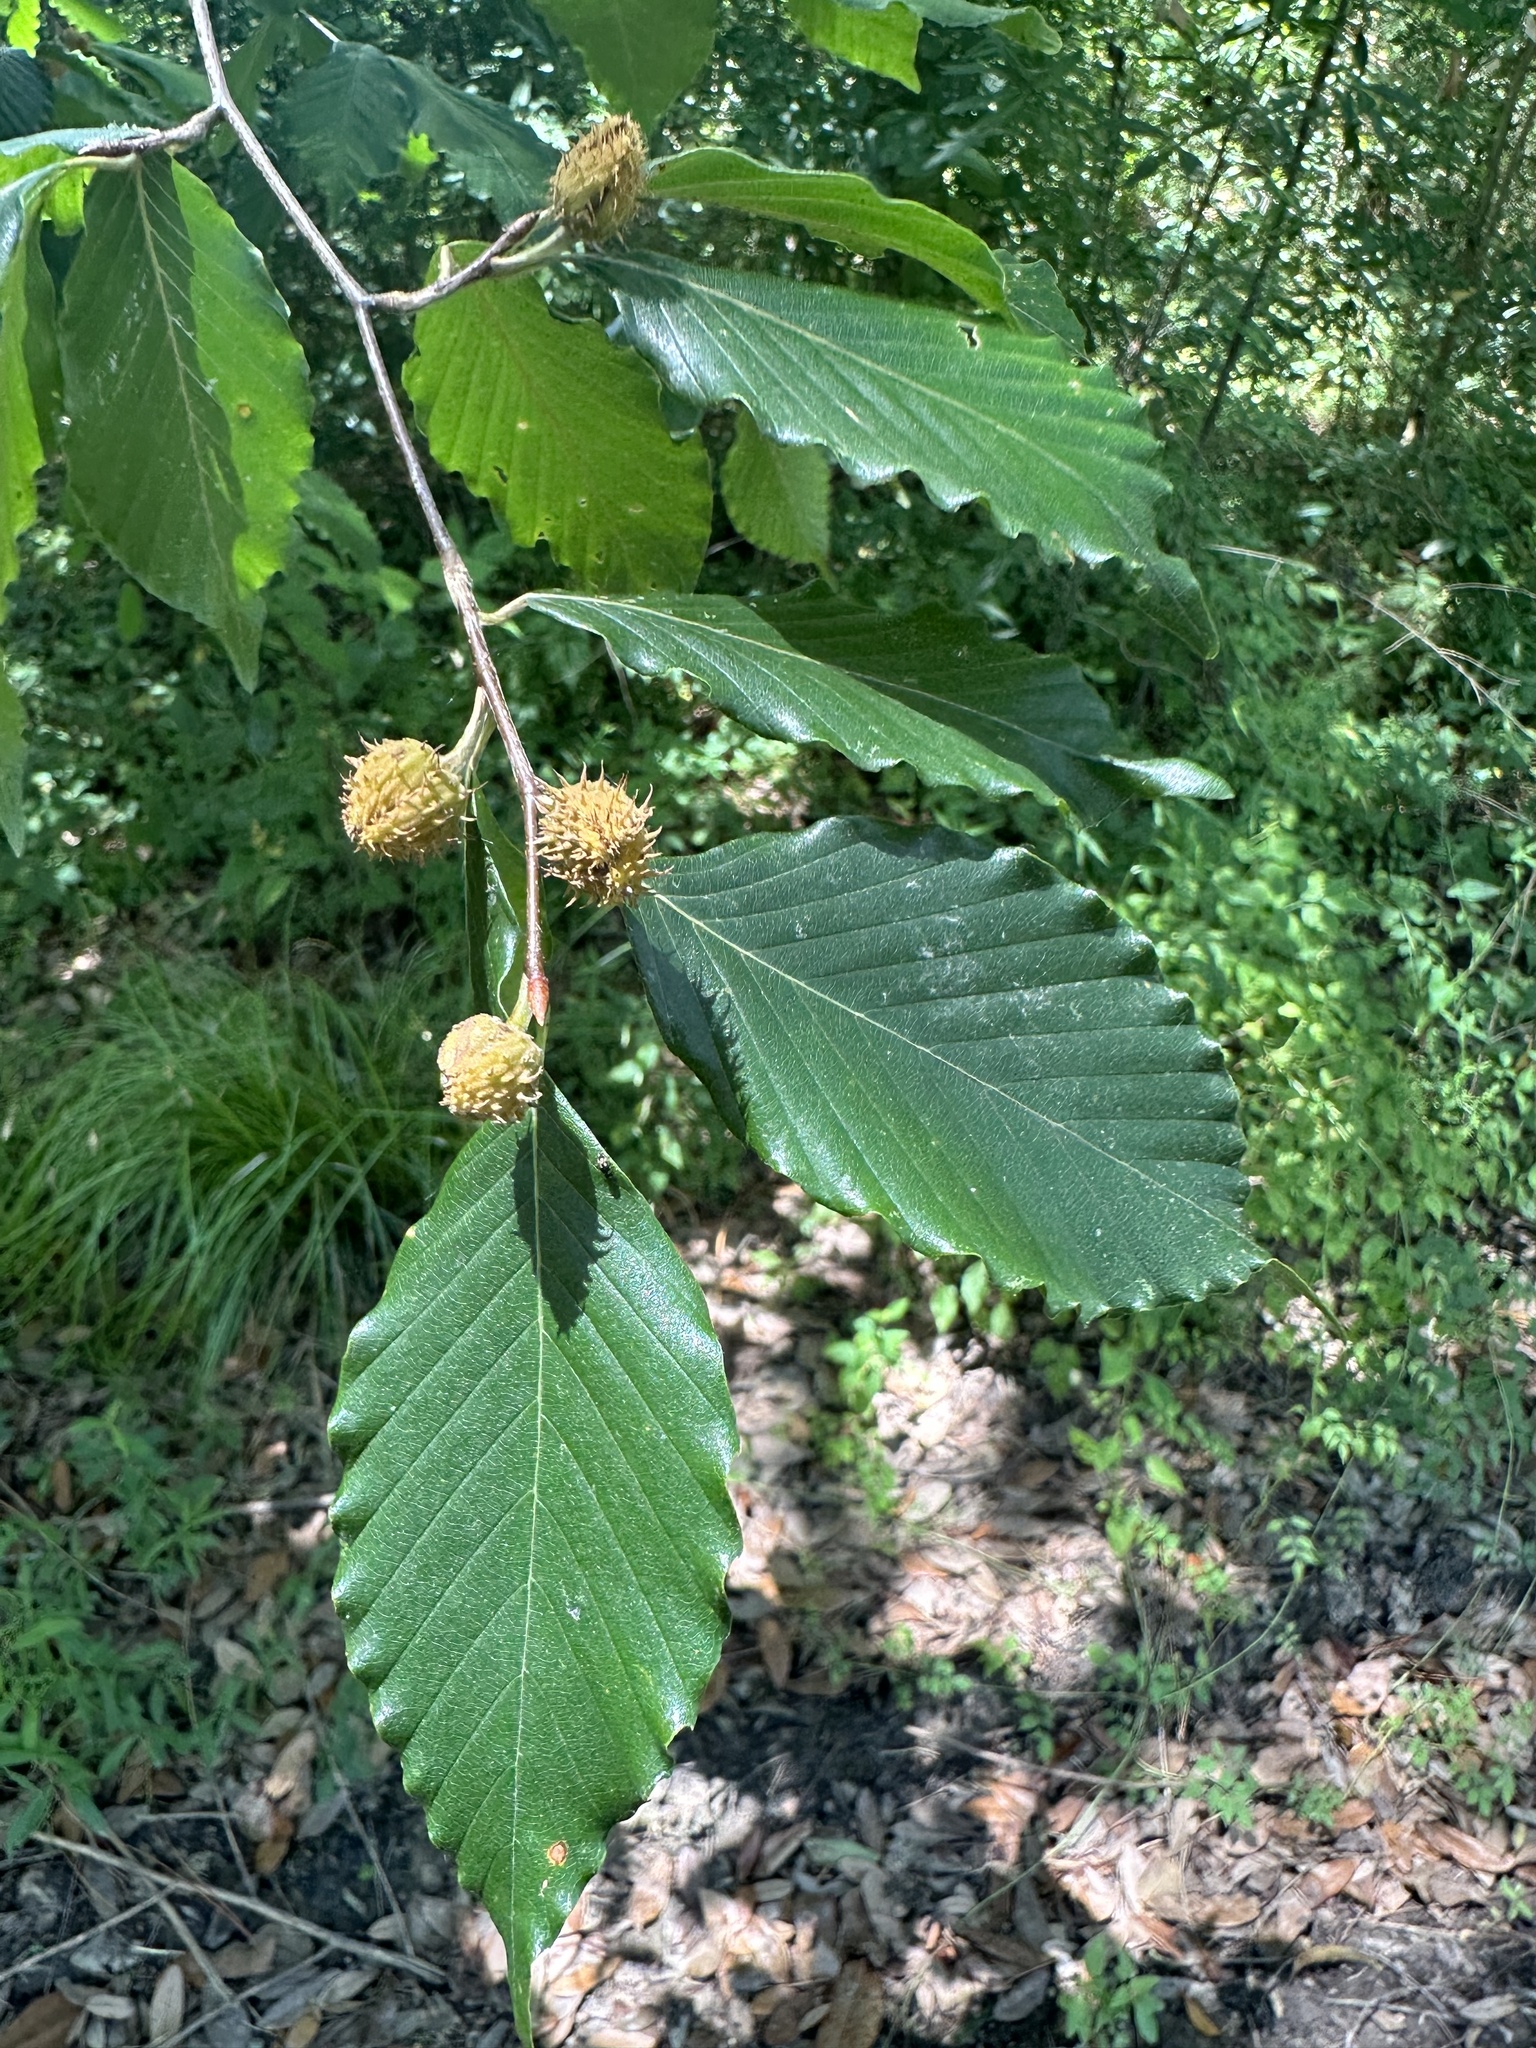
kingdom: Plantae
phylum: Tracheophyta
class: Magnoliopsida
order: Fagales
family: Fagaceae
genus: Fagus
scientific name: Fagus grandifolia
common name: American beech
